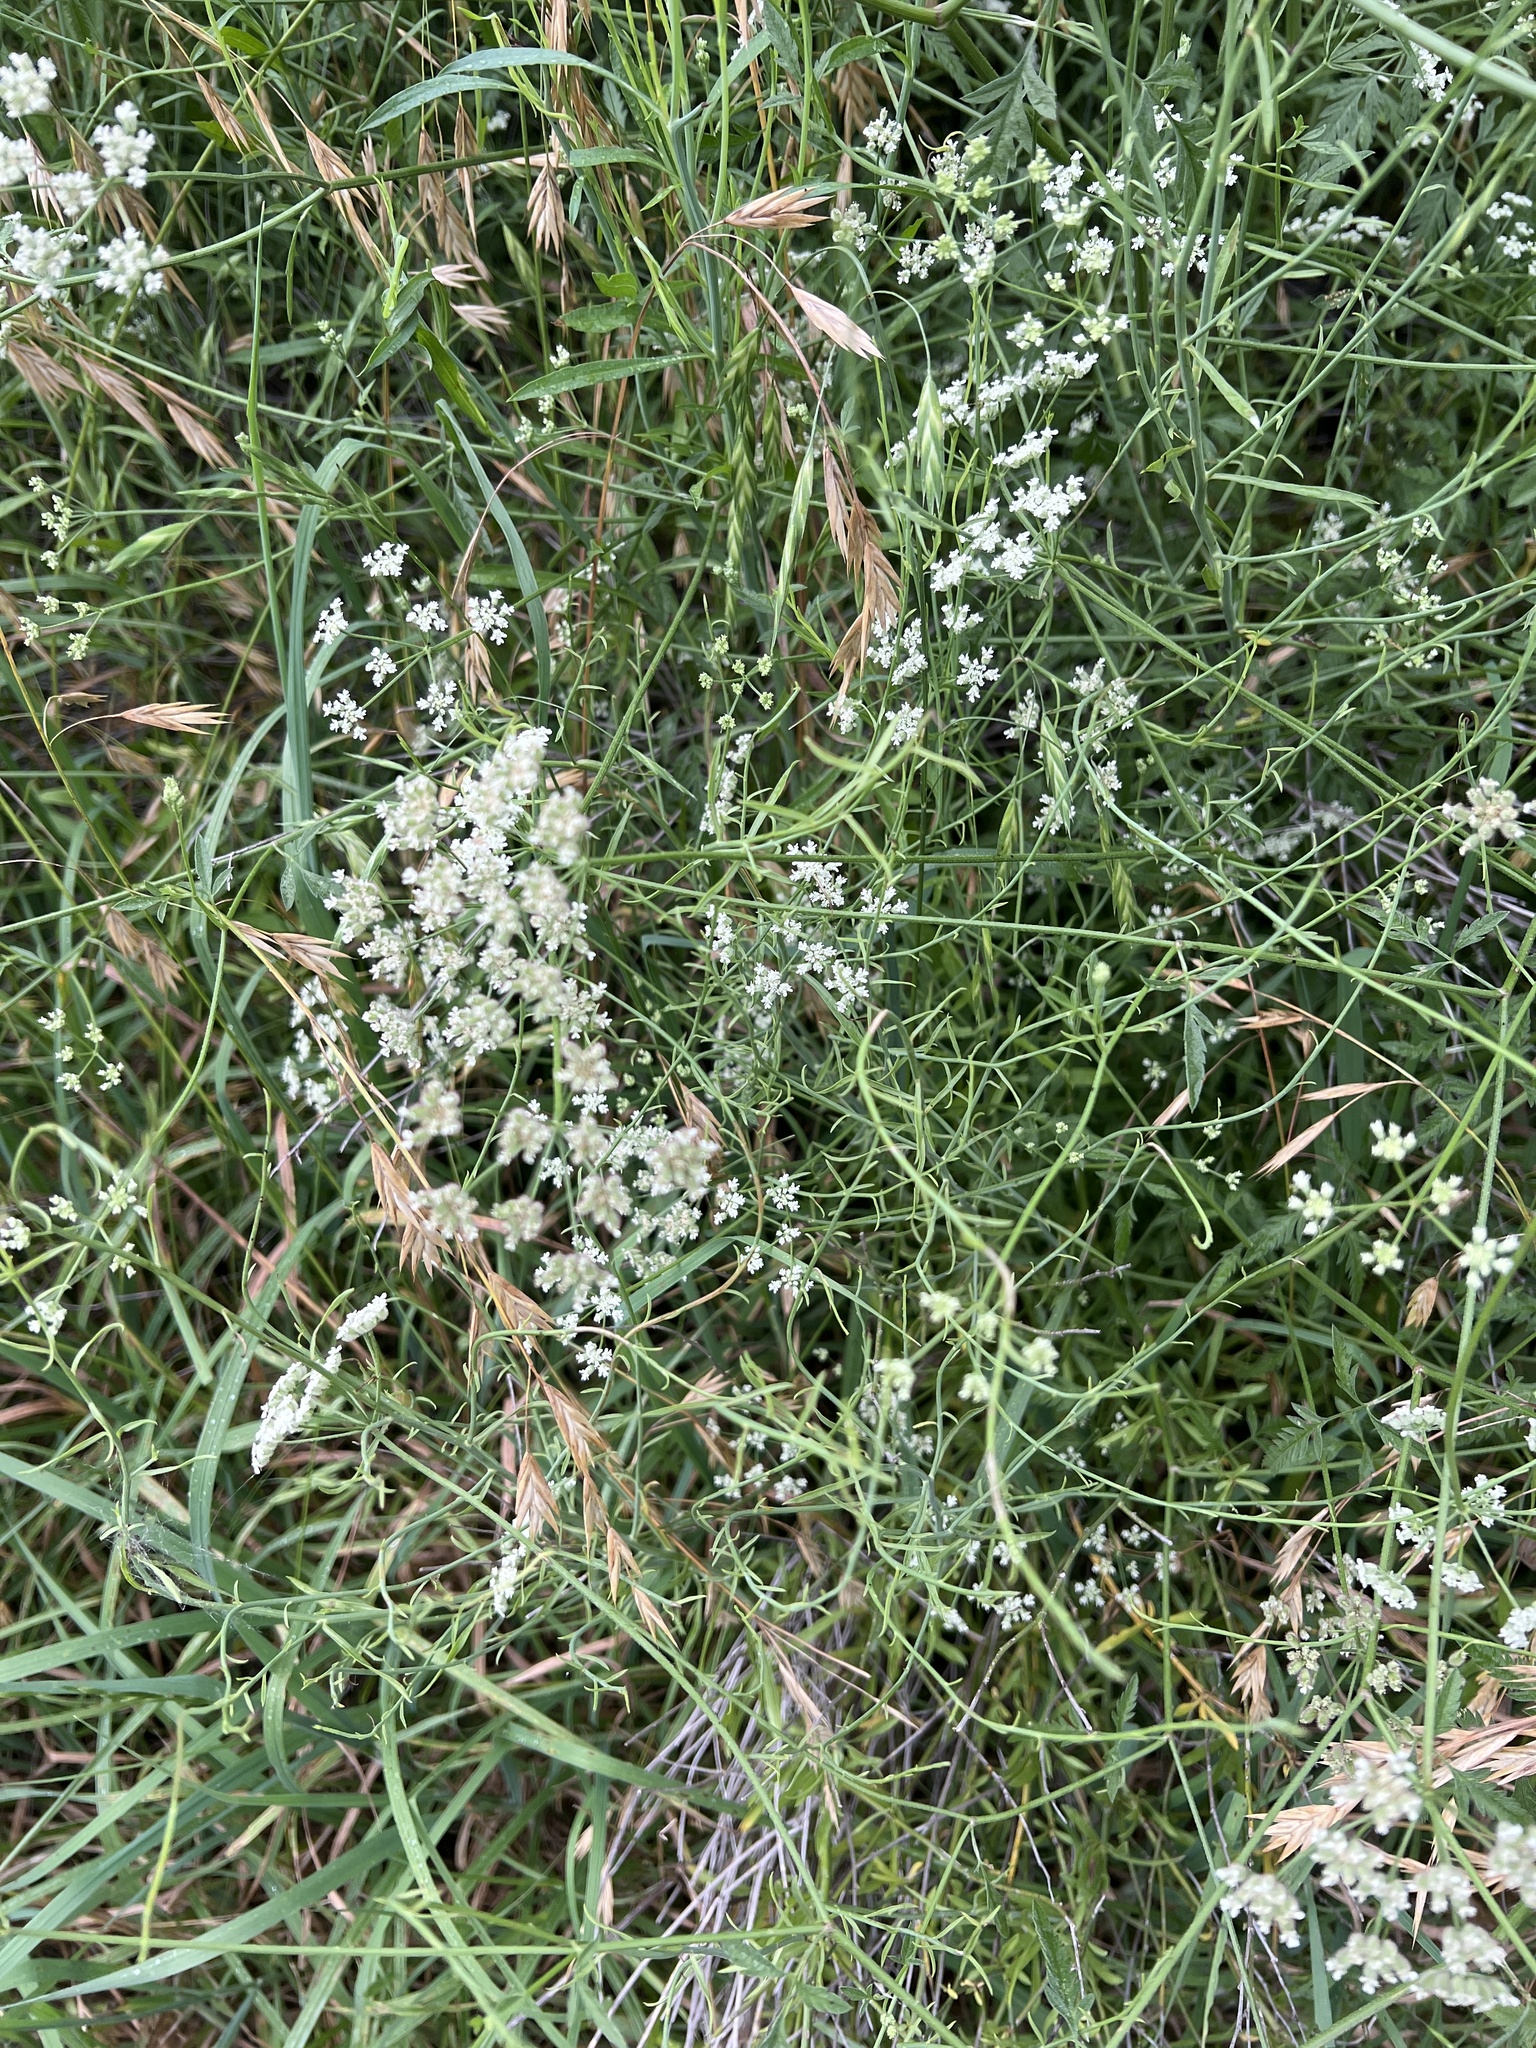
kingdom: Plantae
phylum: Tracheophyta
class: Magnoliopsida
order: Apiales
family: Apiaceae
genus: Torilis
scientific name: Torilis arvensis
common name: Spreading hedge-parsley
